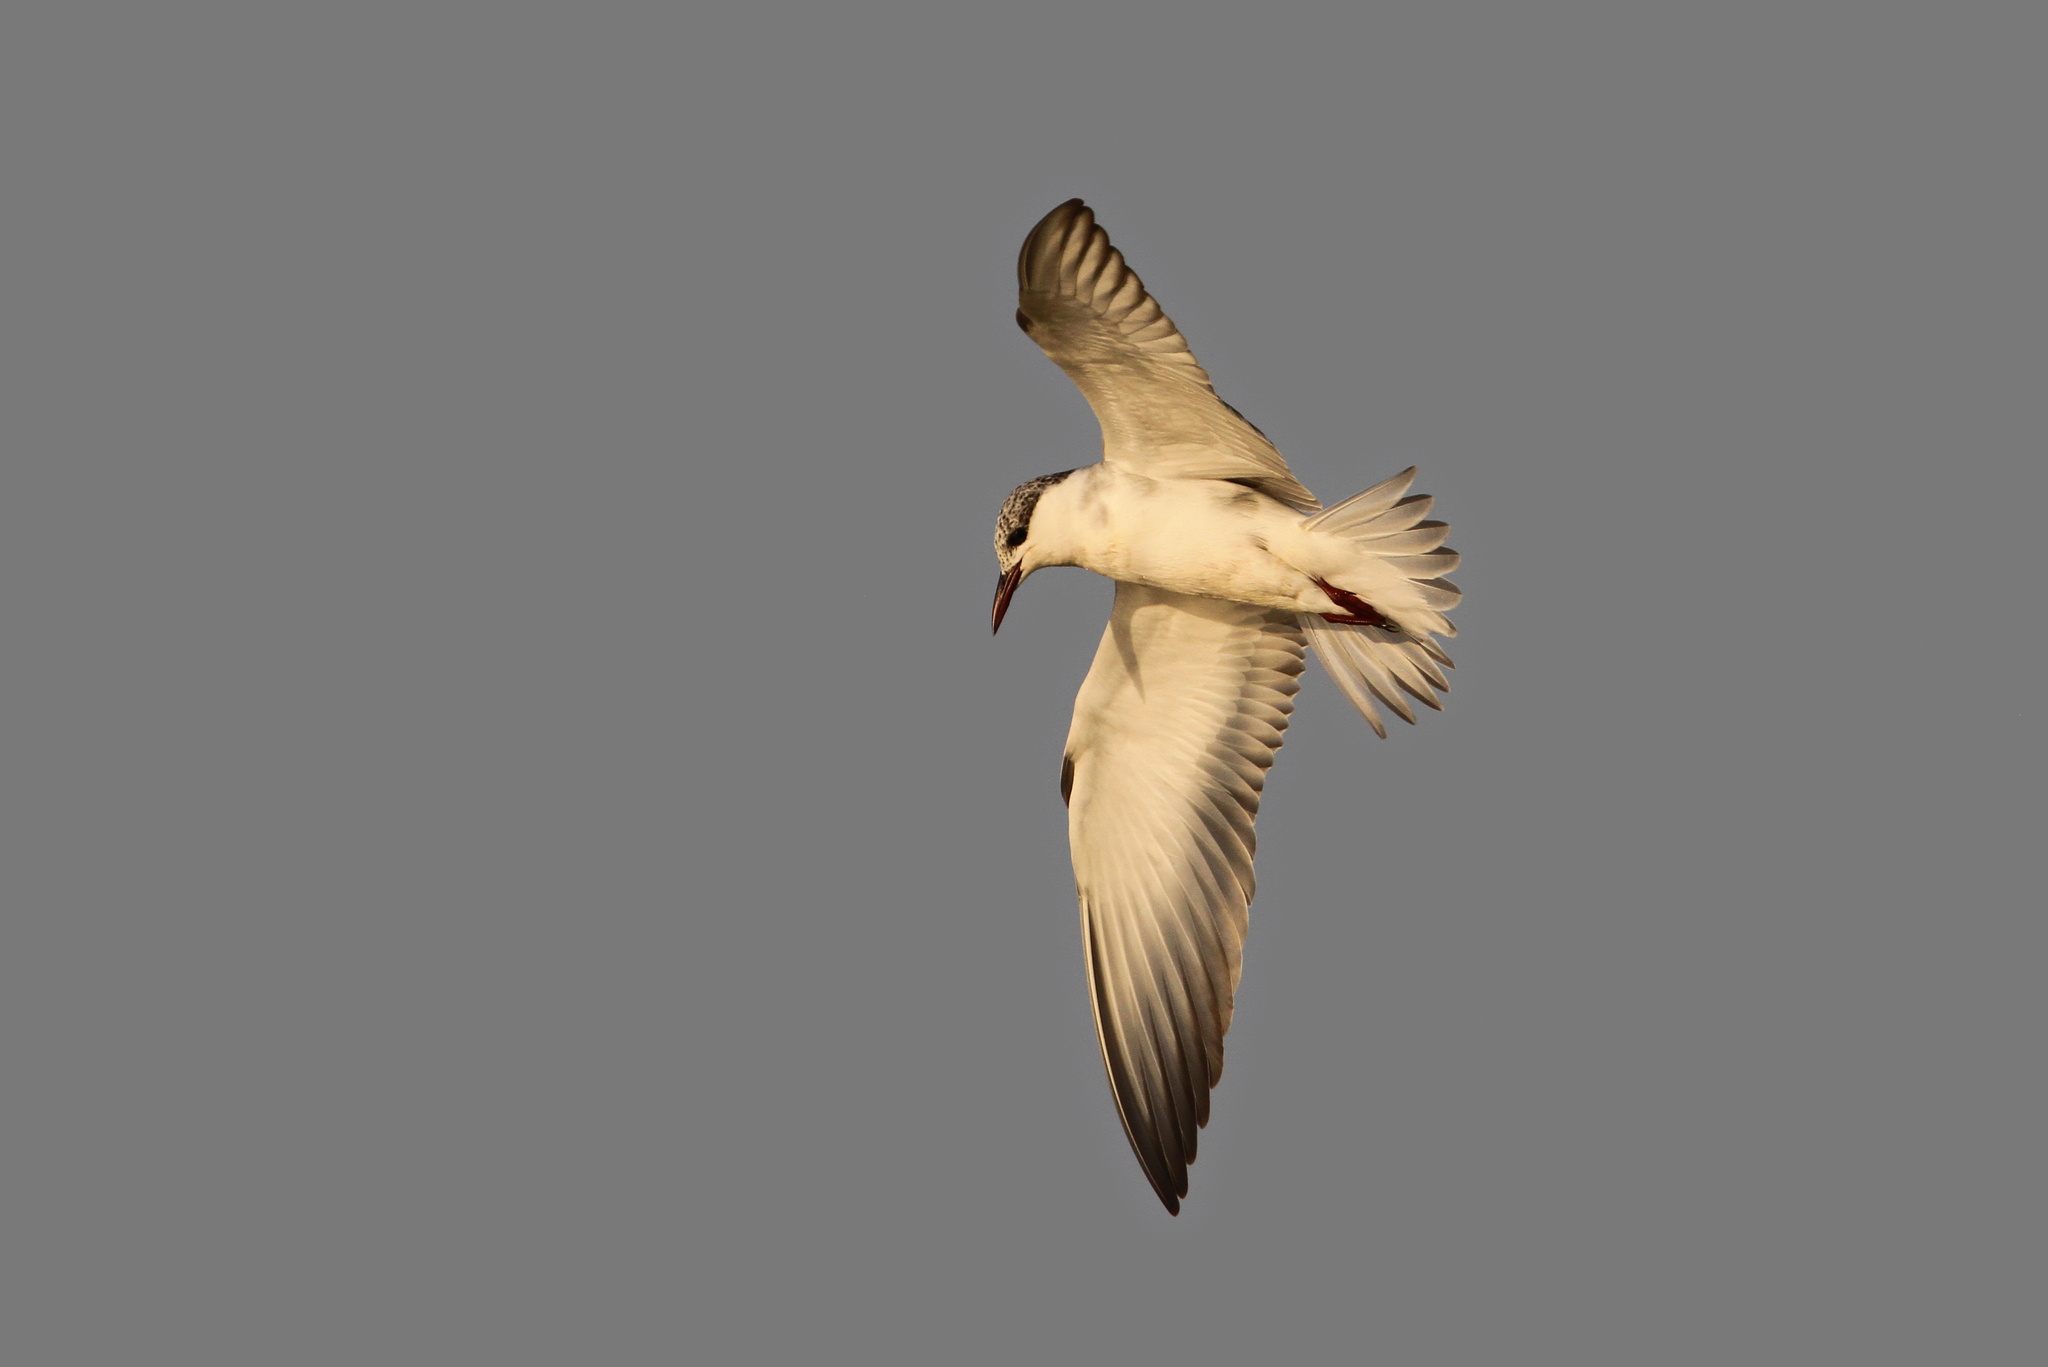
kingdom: Animalia
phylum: Chordata
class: Aves
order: Charadriiformes
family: Laridae
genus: Chlidonias
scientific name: Chlidonias hybrida
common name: Whiskered tern
